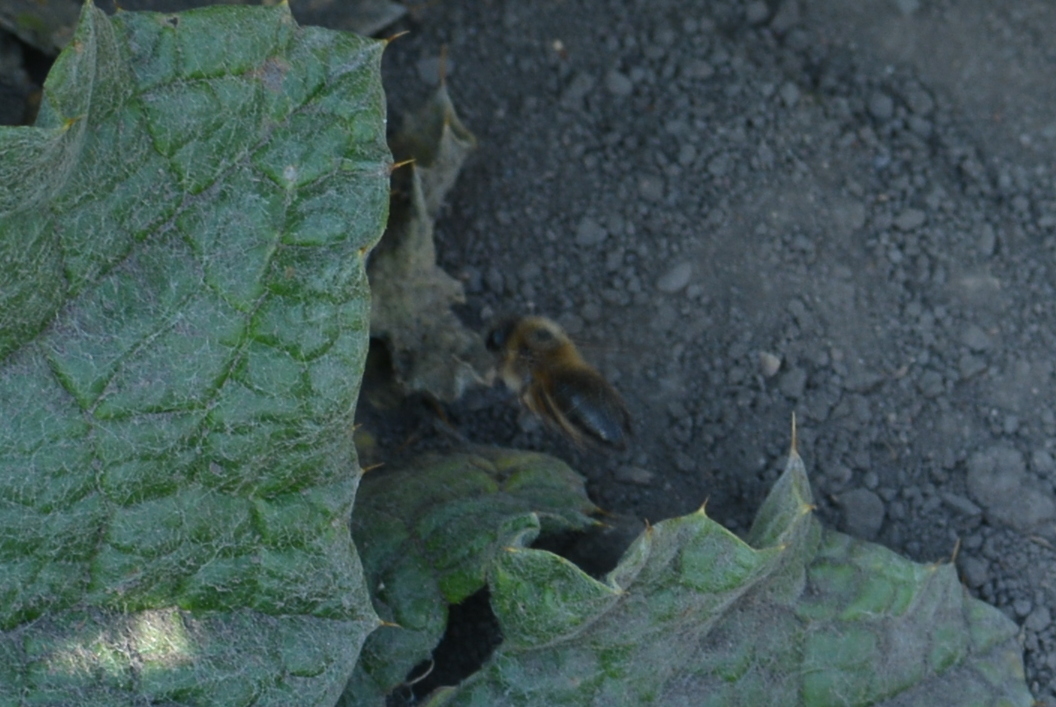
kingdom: Animalia
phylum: Arthropoda
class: Insecta
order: Hymenoptera
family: Colletidae
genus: Colletes
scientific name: Colletes cunicularius
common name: Early colletes
